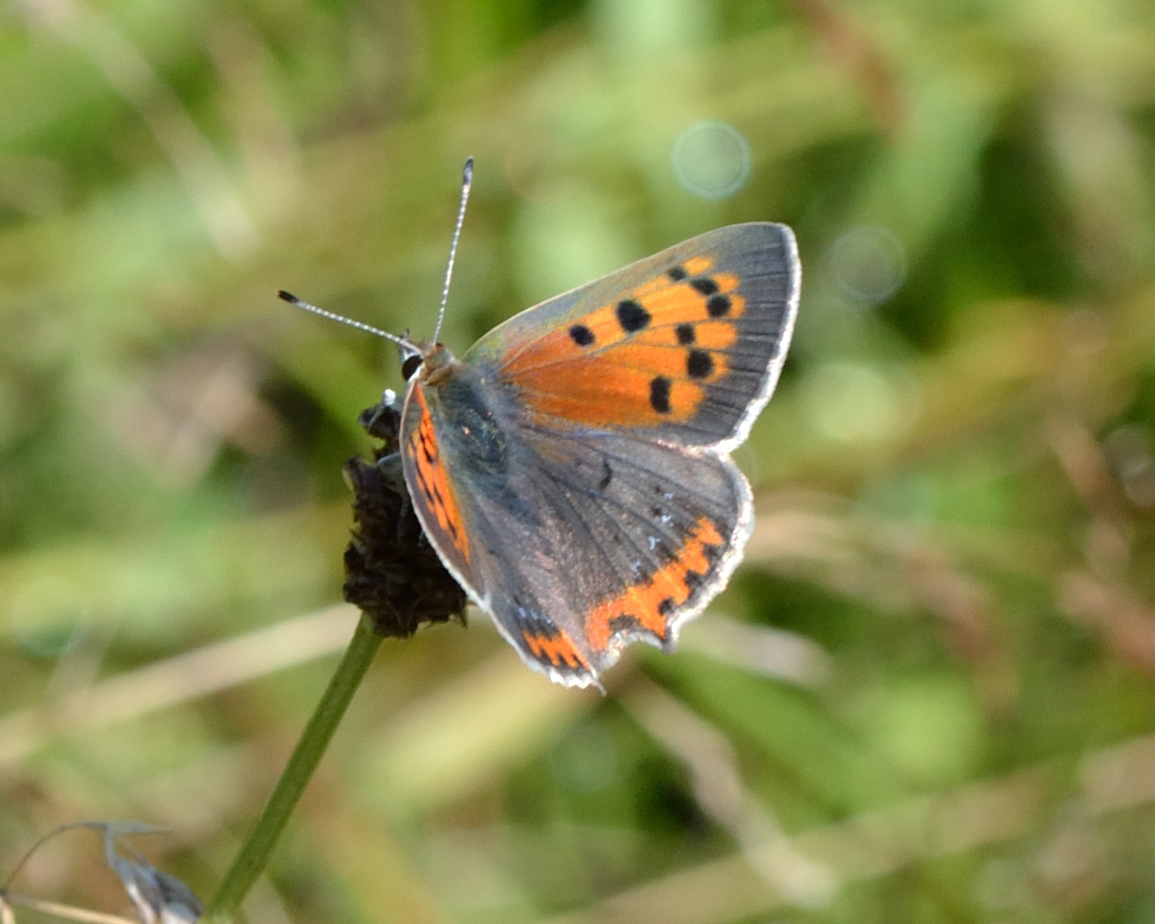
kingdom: Animalia
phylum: Arthropoda
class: Insecta
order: Lepidoptera
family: Lycaenidae
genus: Lycaena
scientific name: Lycaena phlaeas
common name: Small copper
